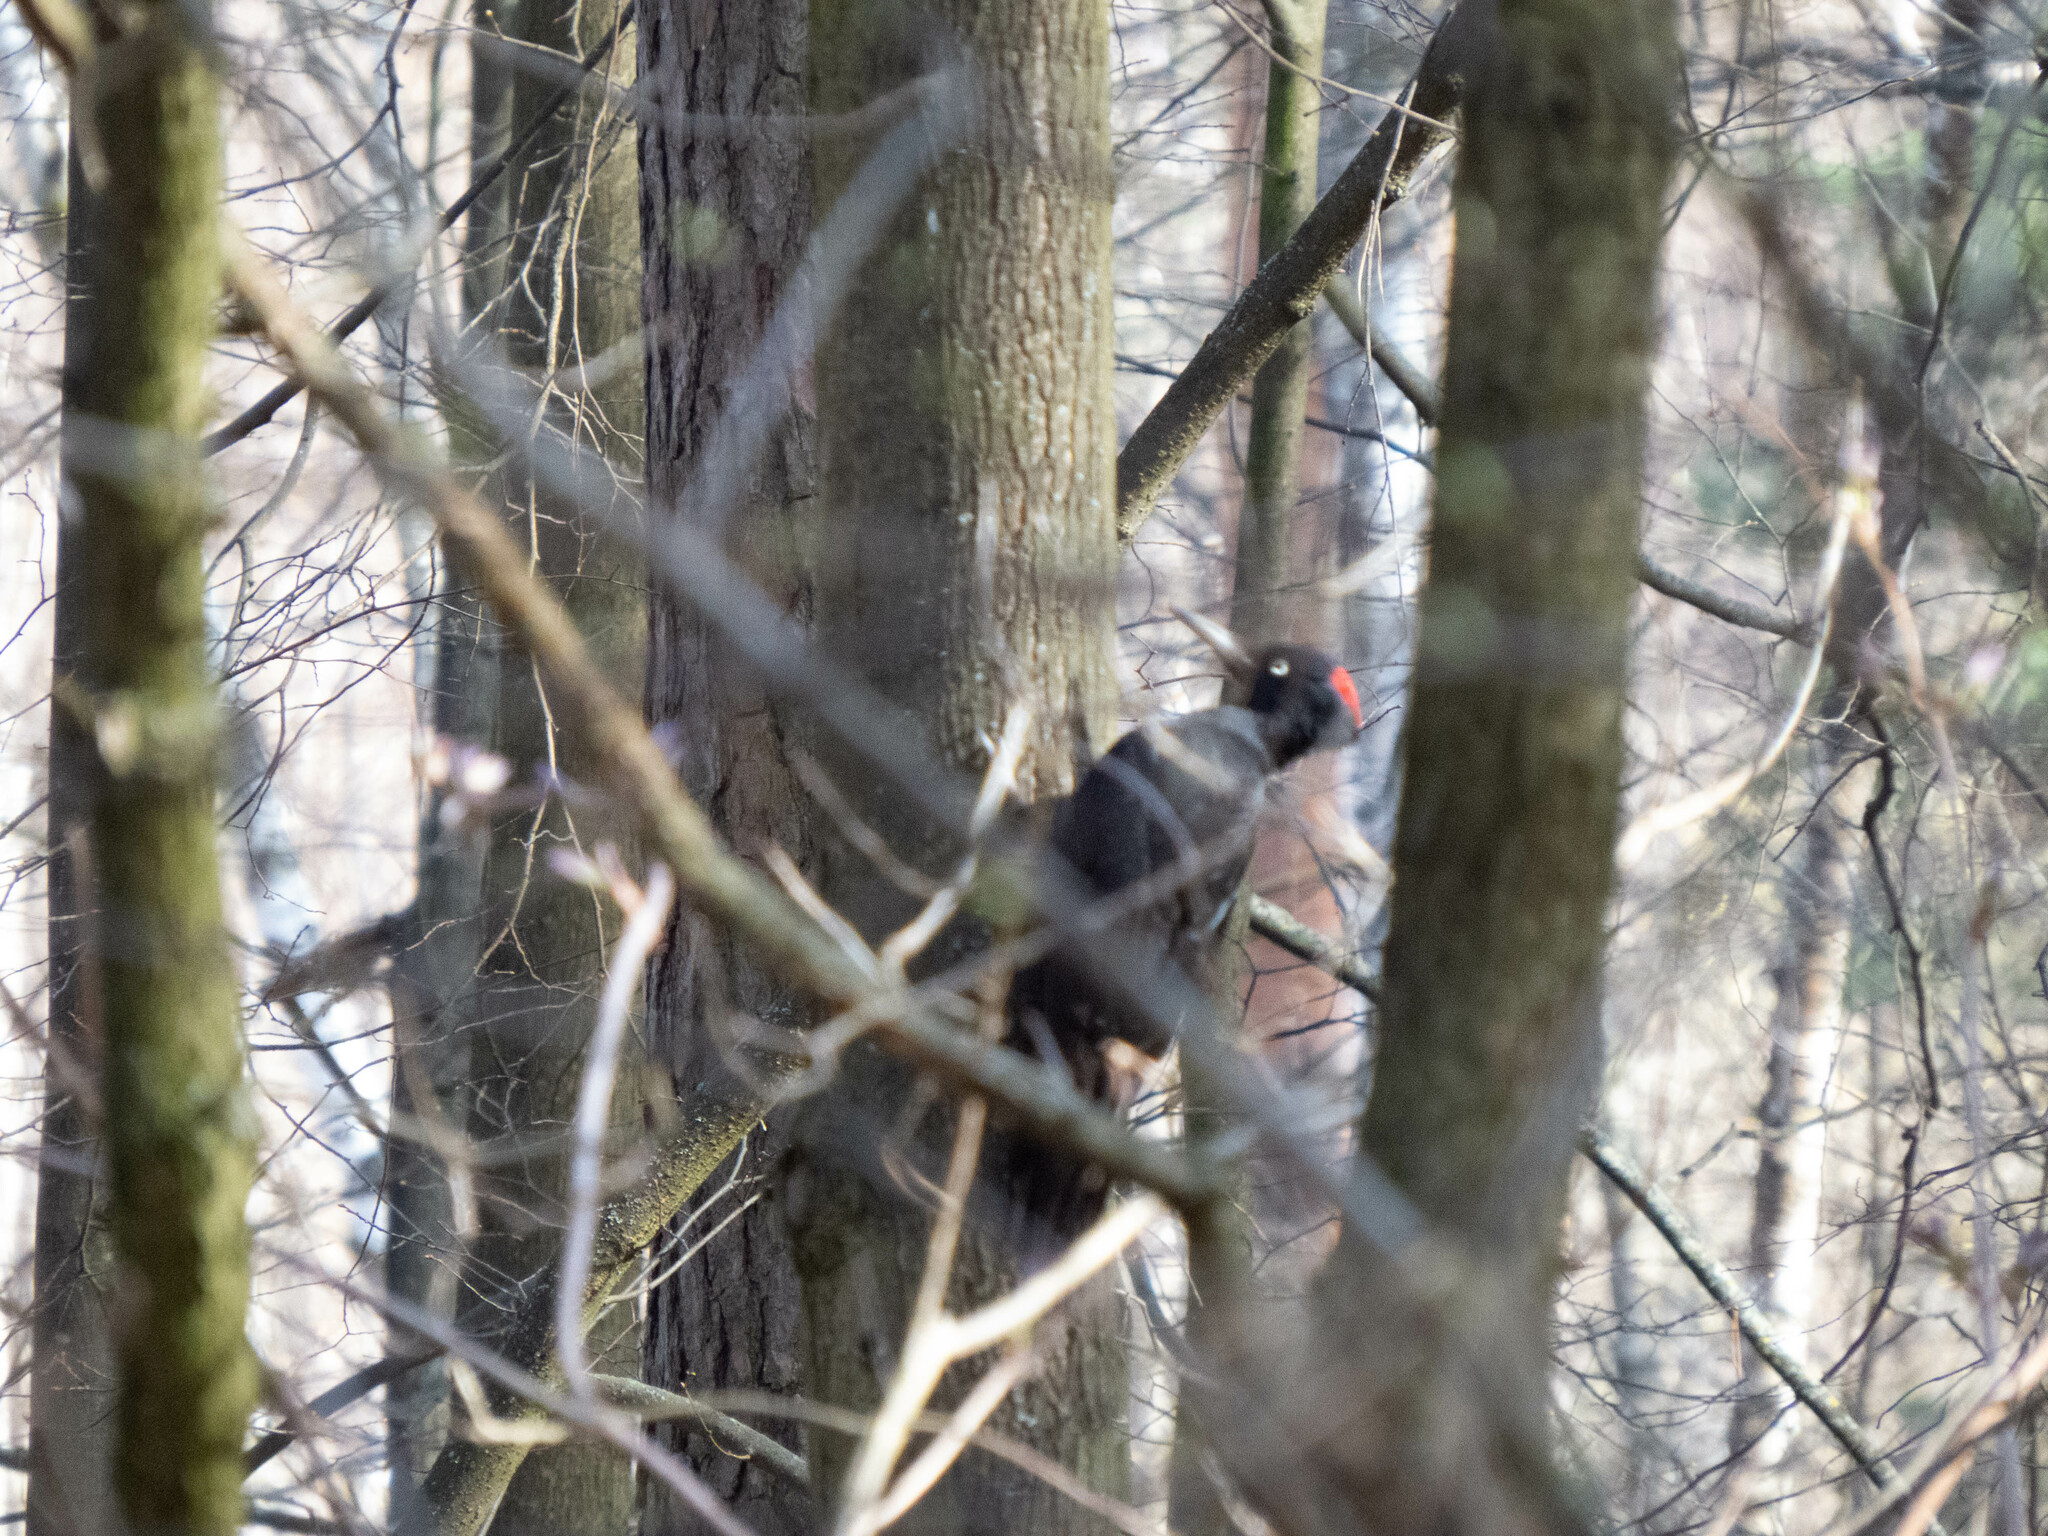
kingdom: Animalia
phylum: Chordata
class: Aves
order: Piciformes
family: Picidae
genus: Dryocopus
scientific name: Dryocopus martius
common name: Black woodpecker
